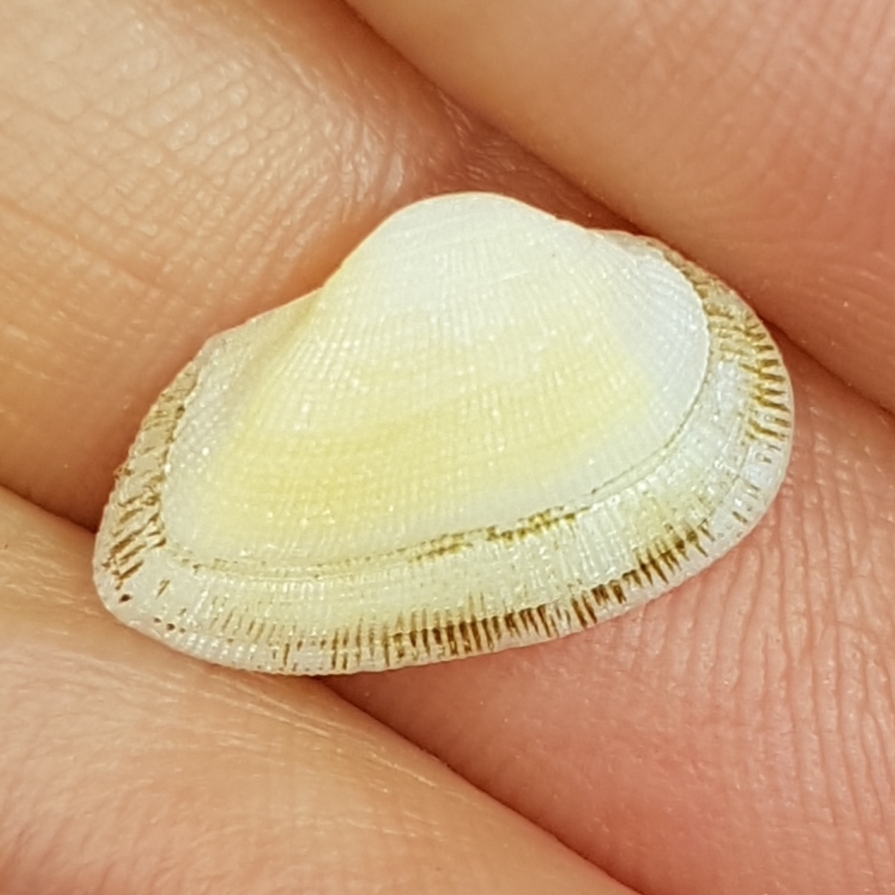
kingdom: Animalia
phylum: Mollusca
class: Bivalvia
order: Arcida
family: Noetiidae
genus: Striarca
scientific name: Striarca lactea
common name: Milky-white ark
